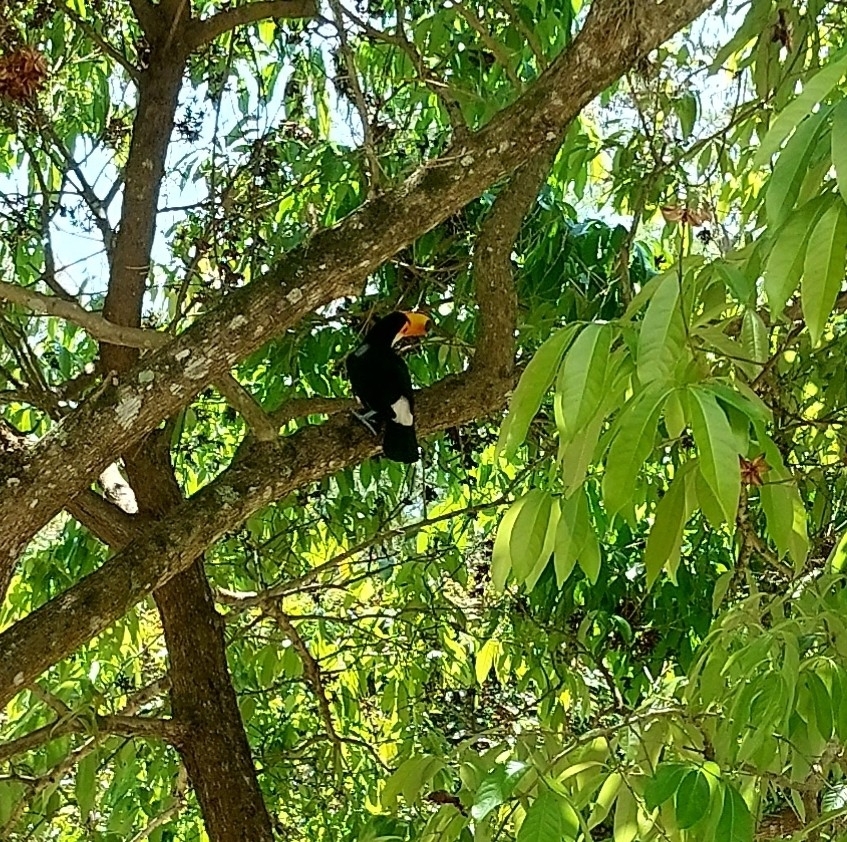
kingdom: Animalia
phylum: Chordata
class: Aves
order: Piciformes
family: Ramphastidae
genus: Ramphastos
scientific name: Ramphastos toco
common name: Toco toucan
